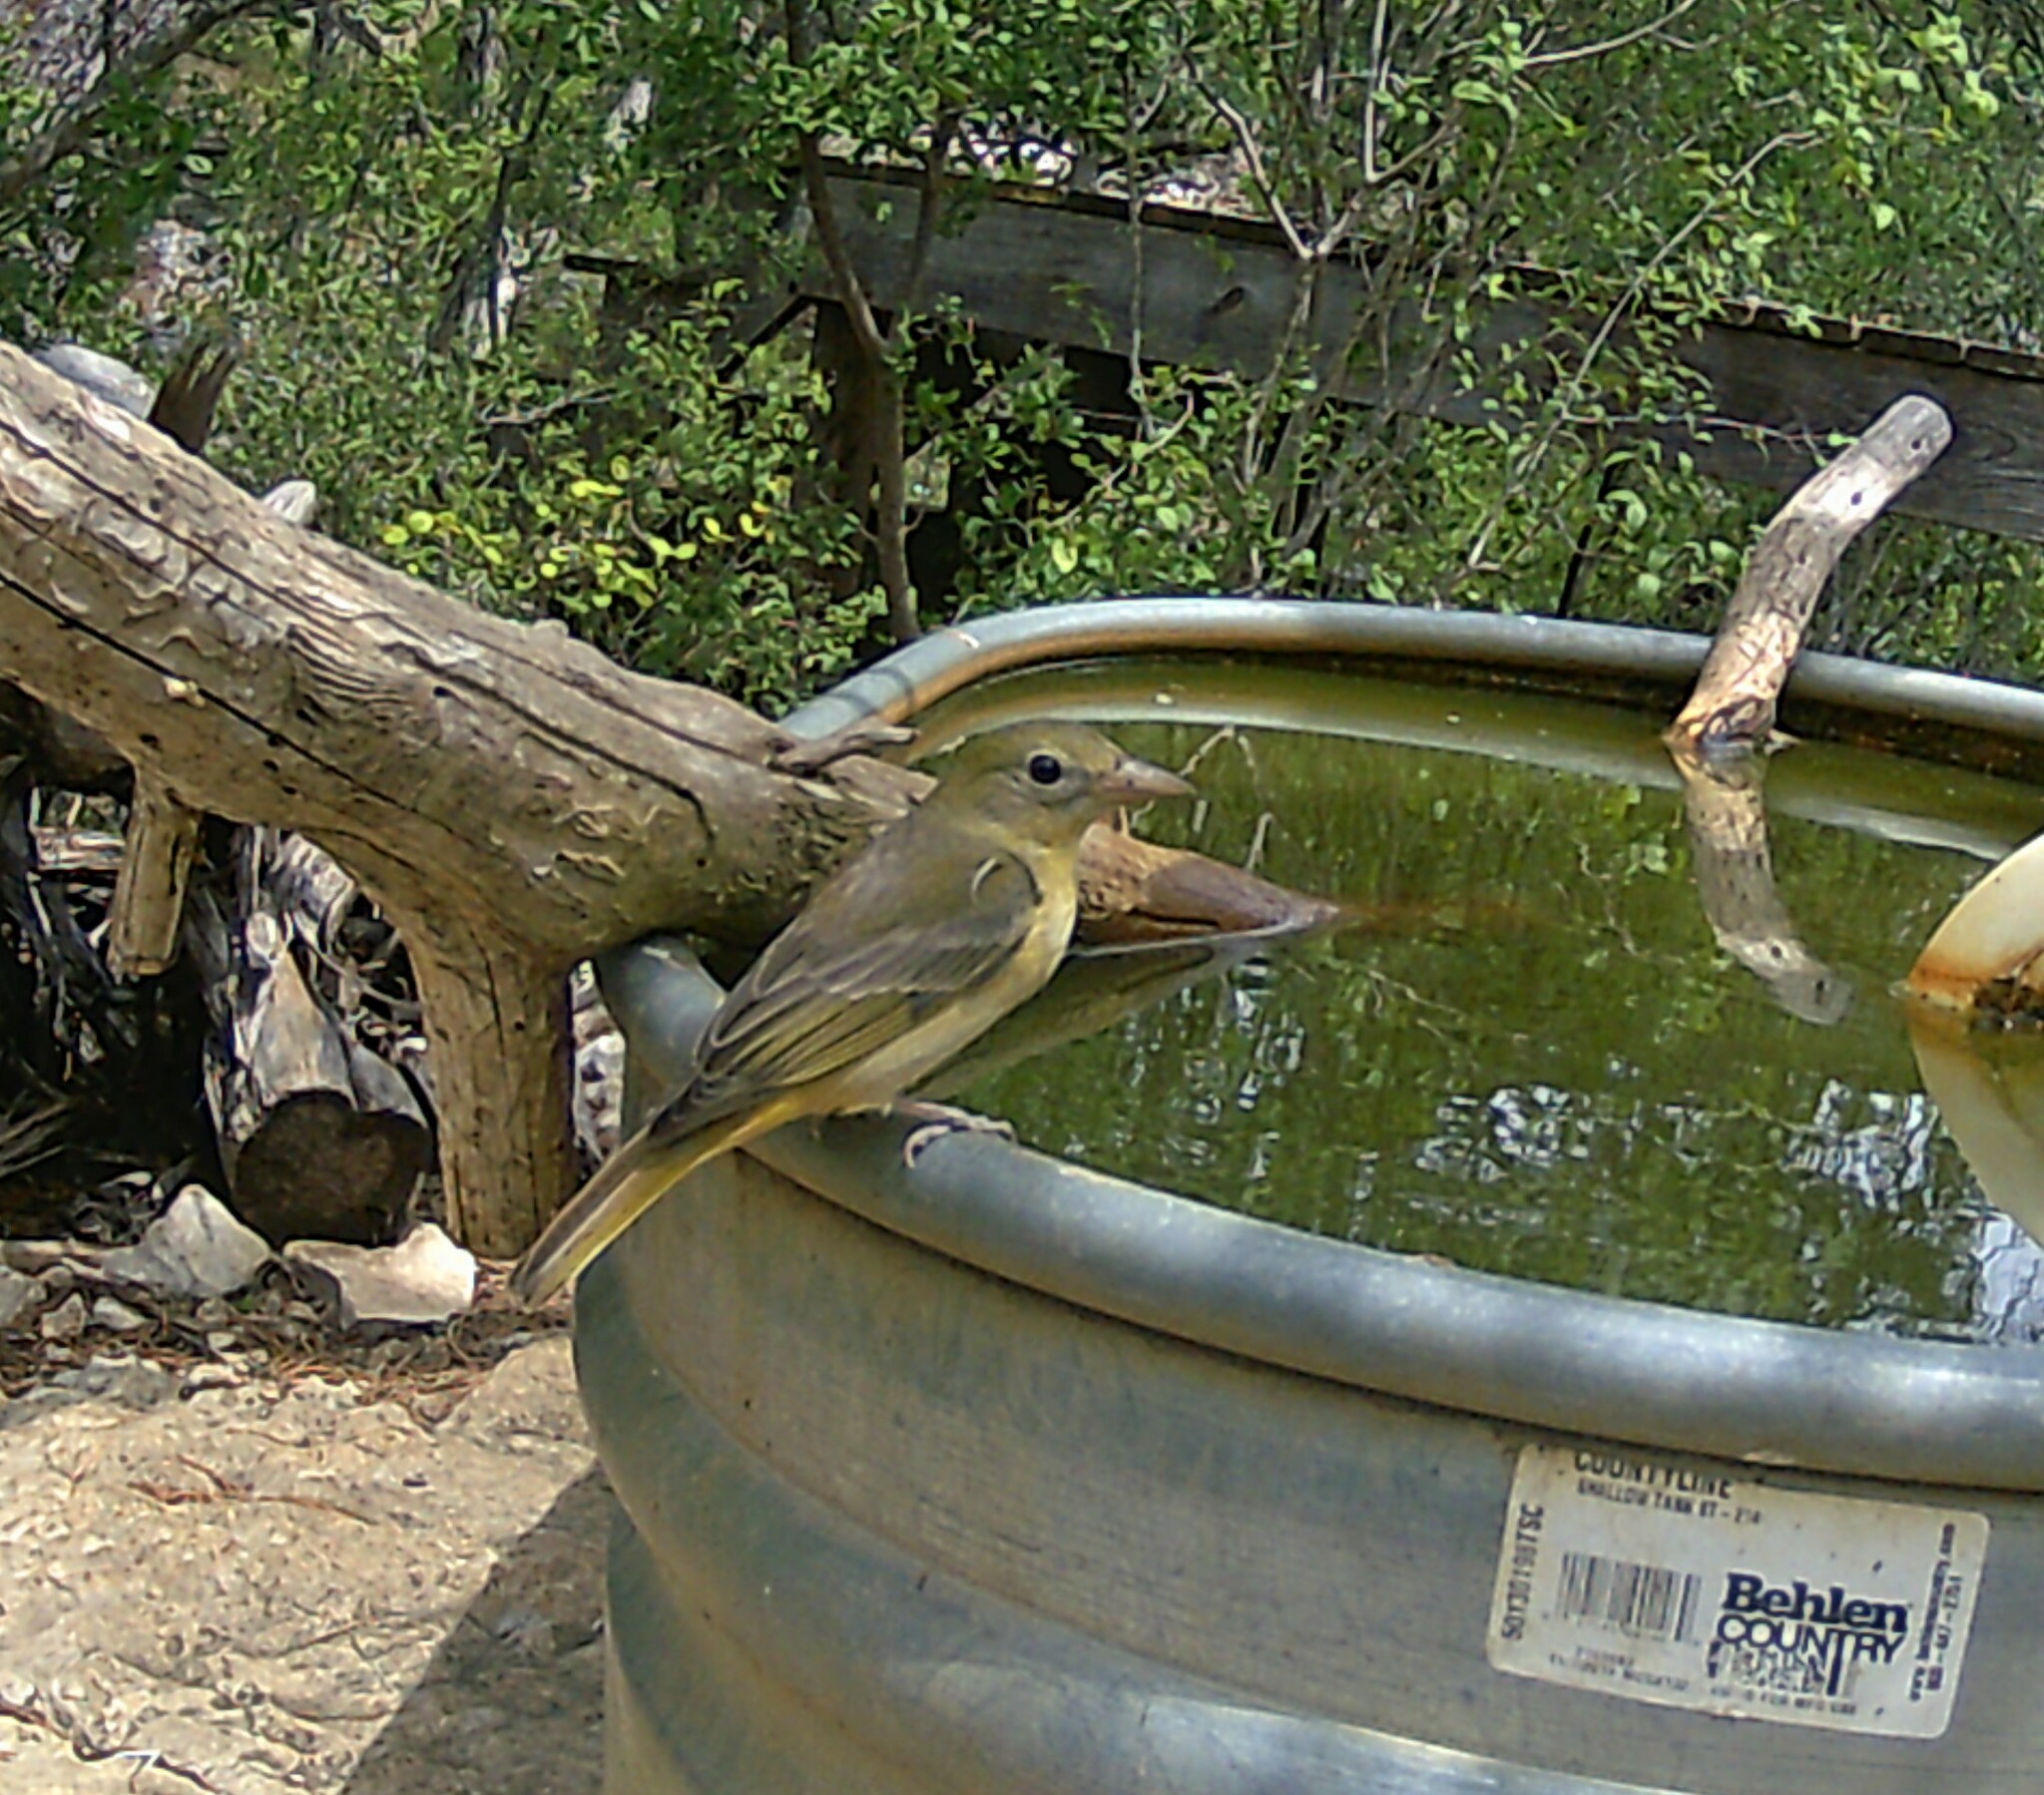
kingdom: Animalia
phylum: Chordata
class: Aves
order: Passeriformes
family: Cardinalidae
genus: Piranga
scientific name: Piranga rubra
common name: Summer tanager
